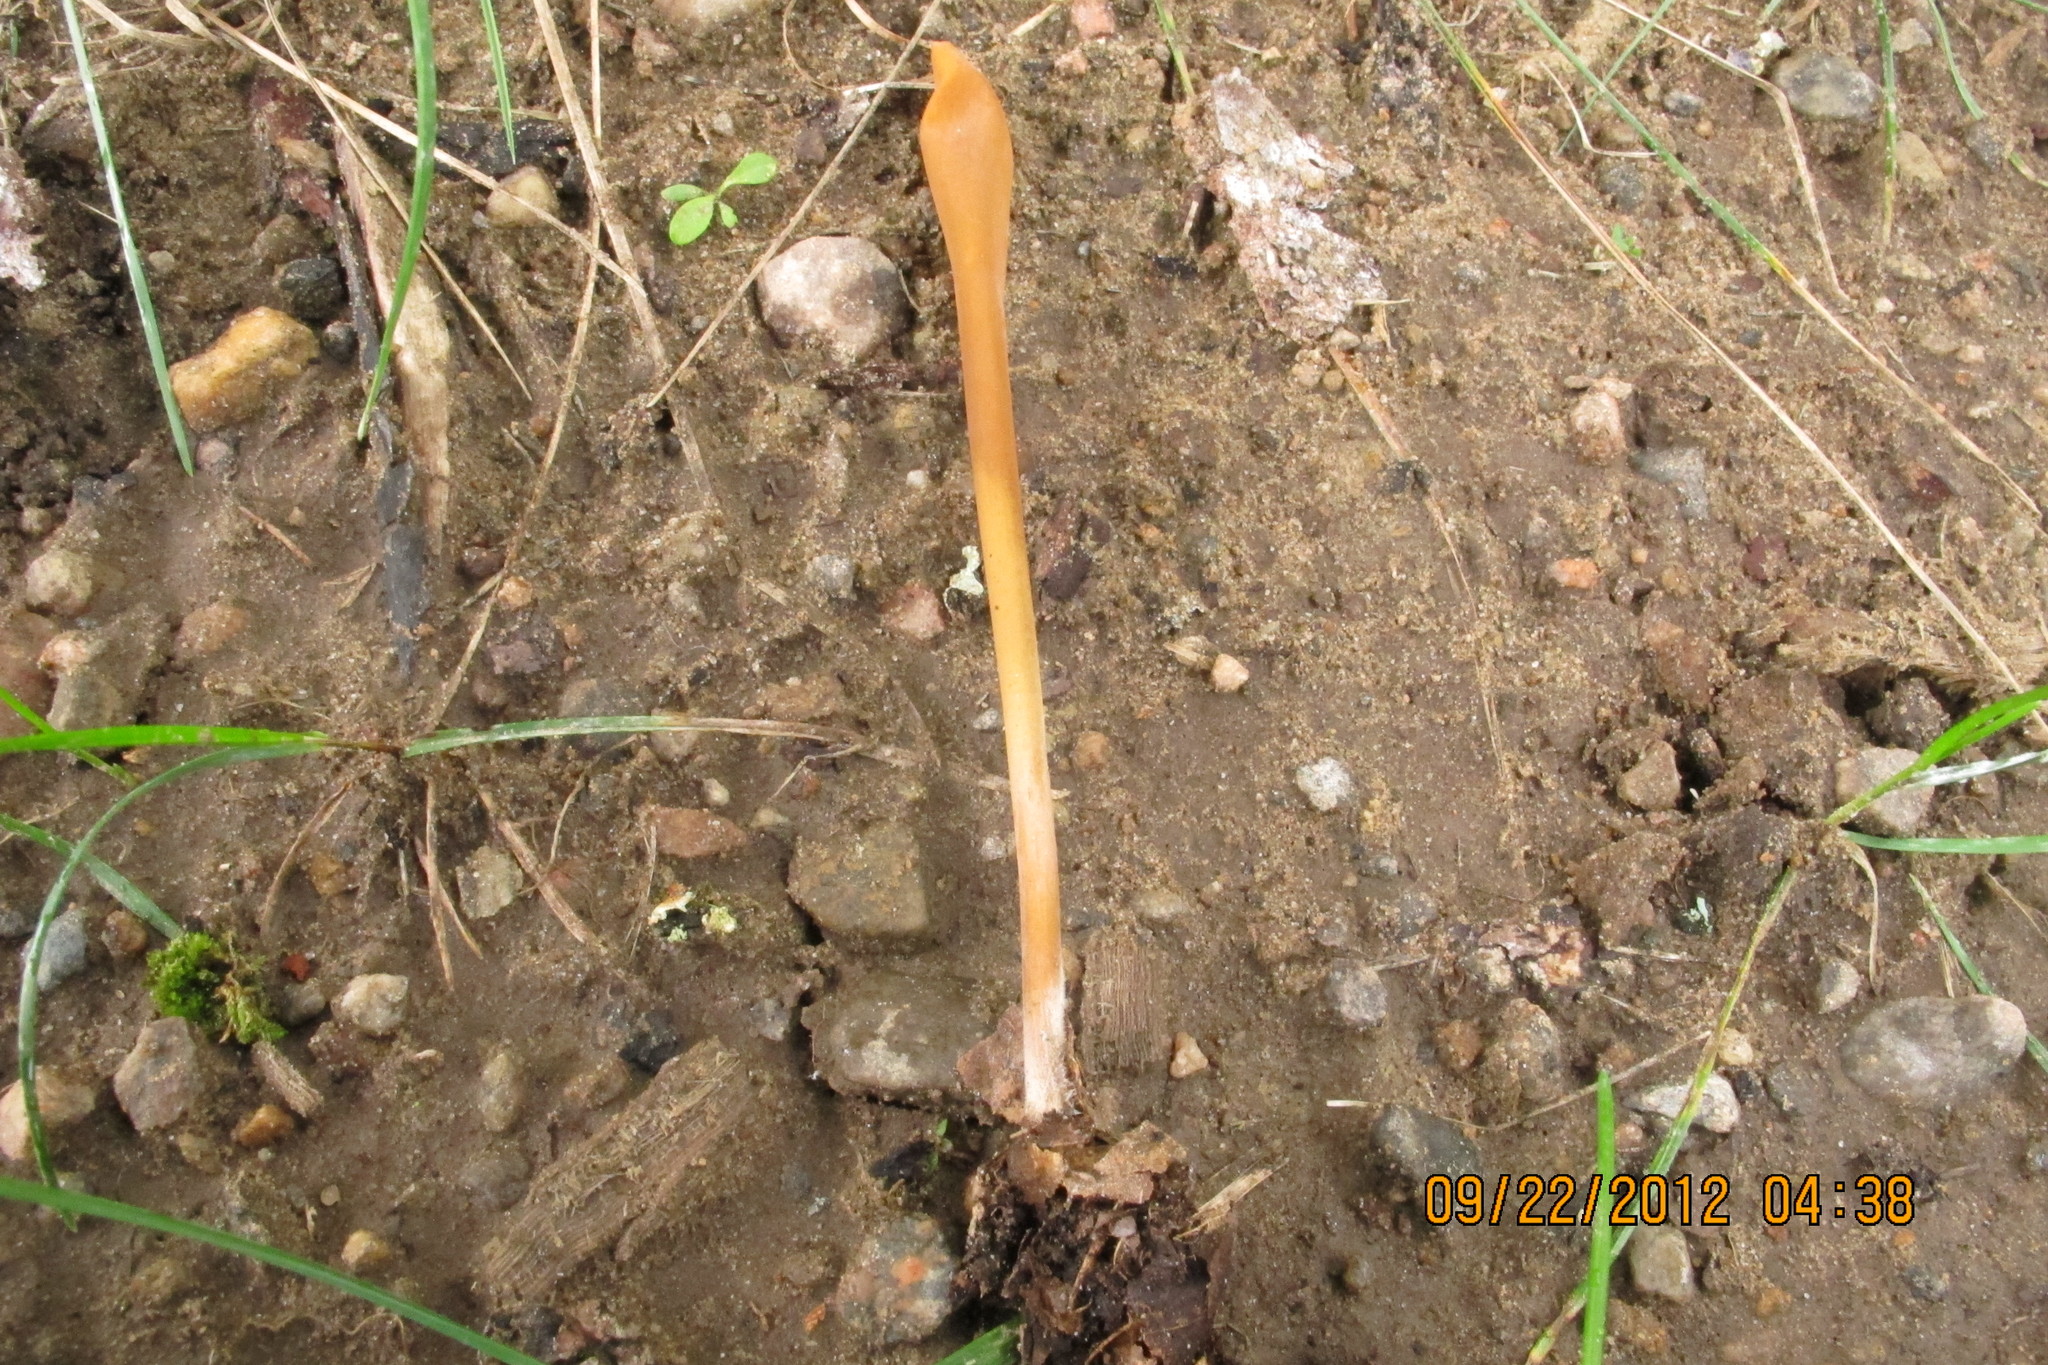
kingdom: Fungi
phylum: Basidiomycota
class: Agaricomycetes
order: Agaricales
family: Typhulaceae
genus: Typhula
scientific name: Typhula fistulosa
